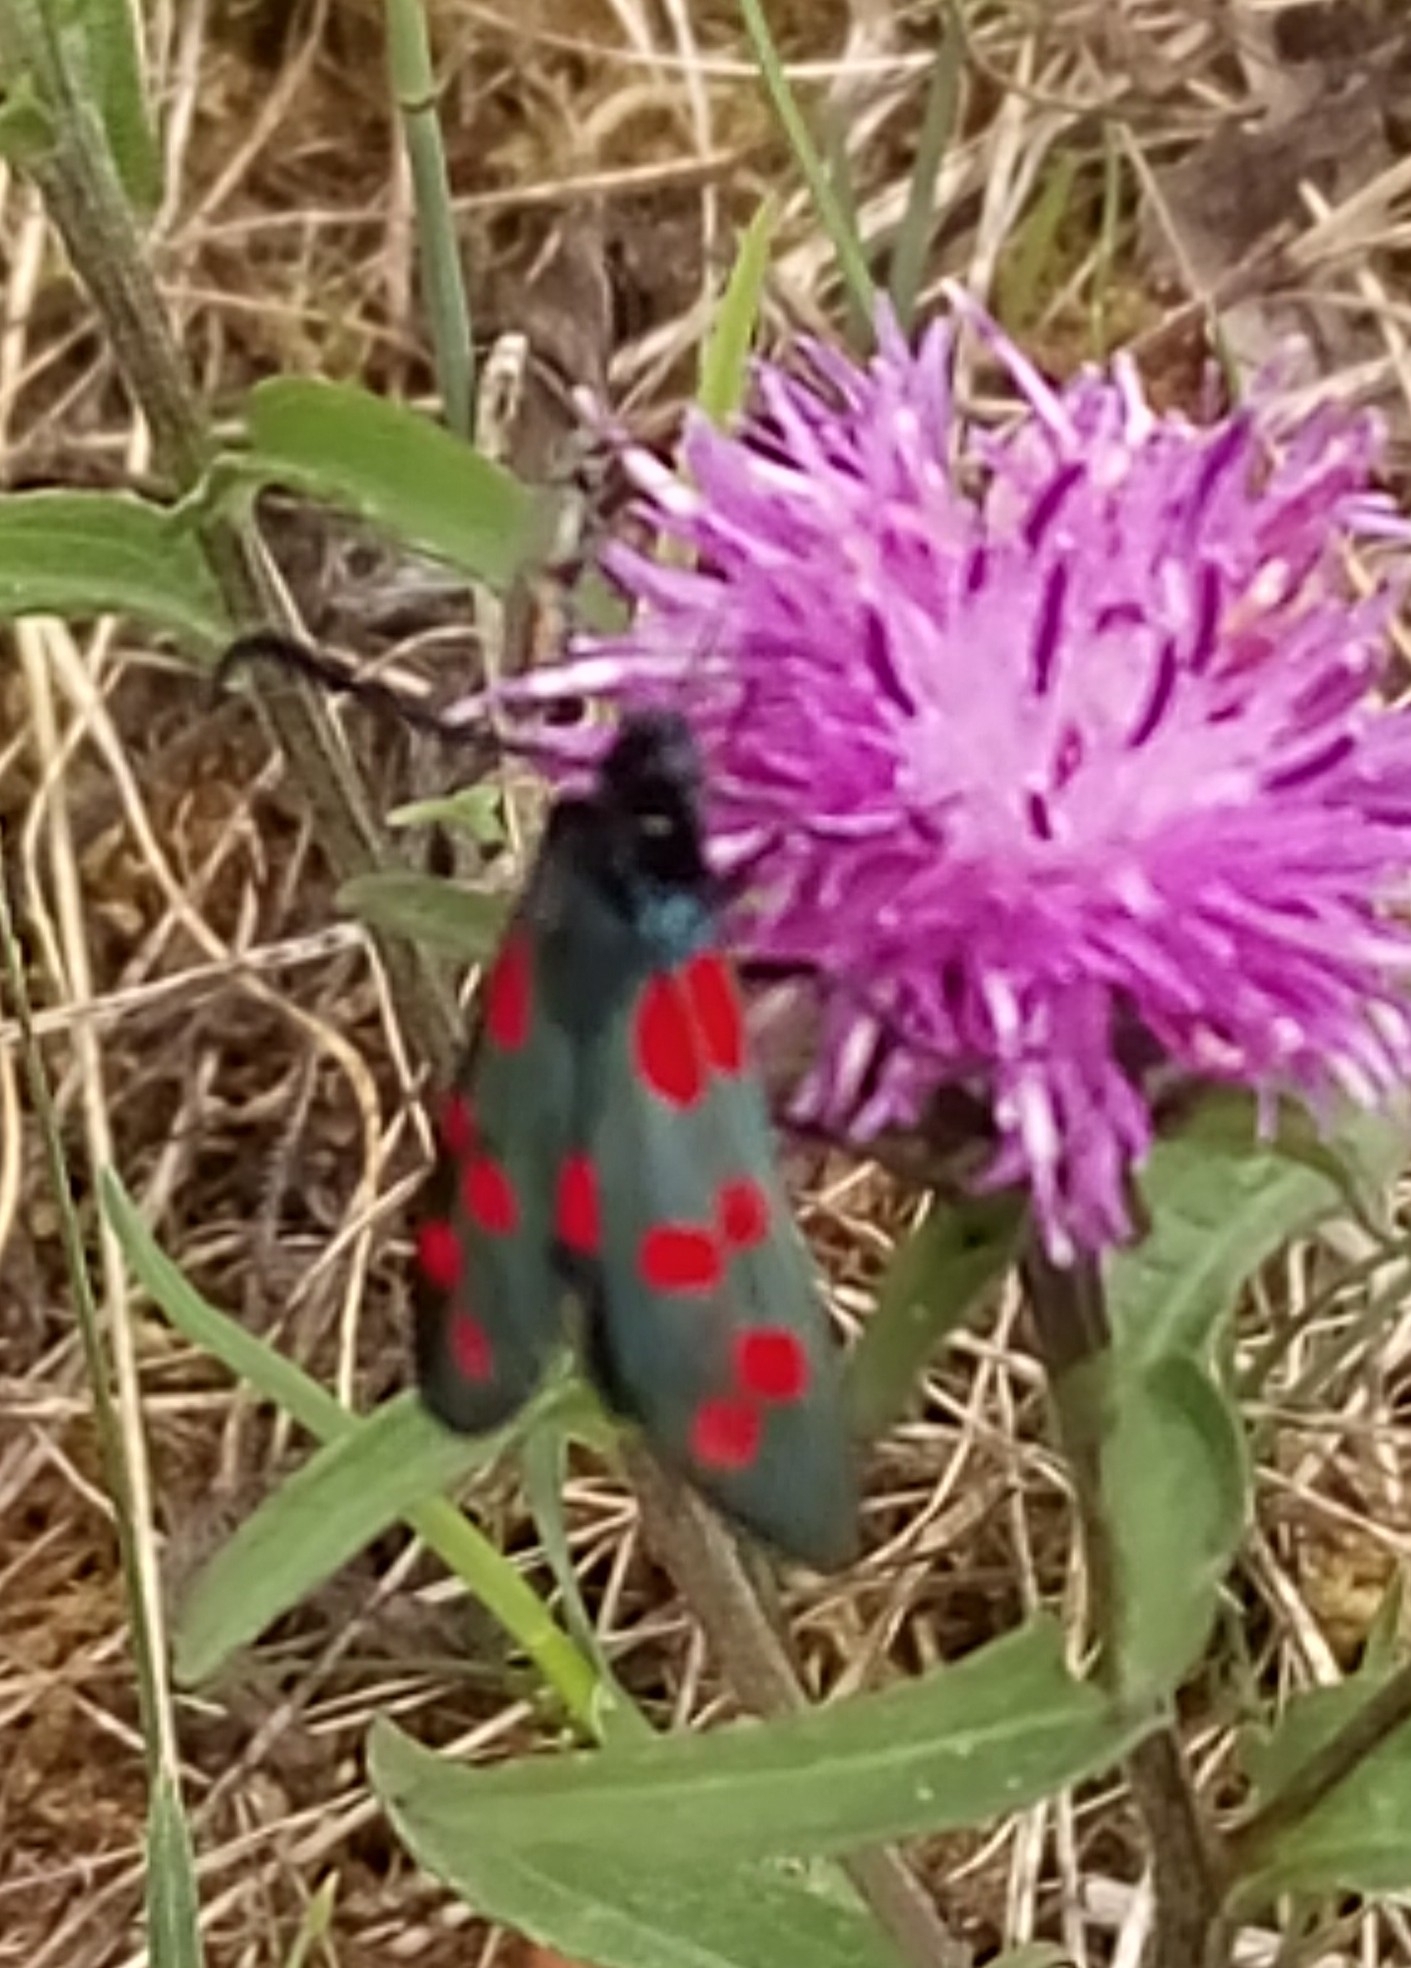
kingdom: Animalia
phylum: Arthropoda
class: Insecta
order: Lepidoptera
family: Zygaenidae
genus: Zygaena
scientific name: Zygaena filipendulae
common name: Six-spot burnet
